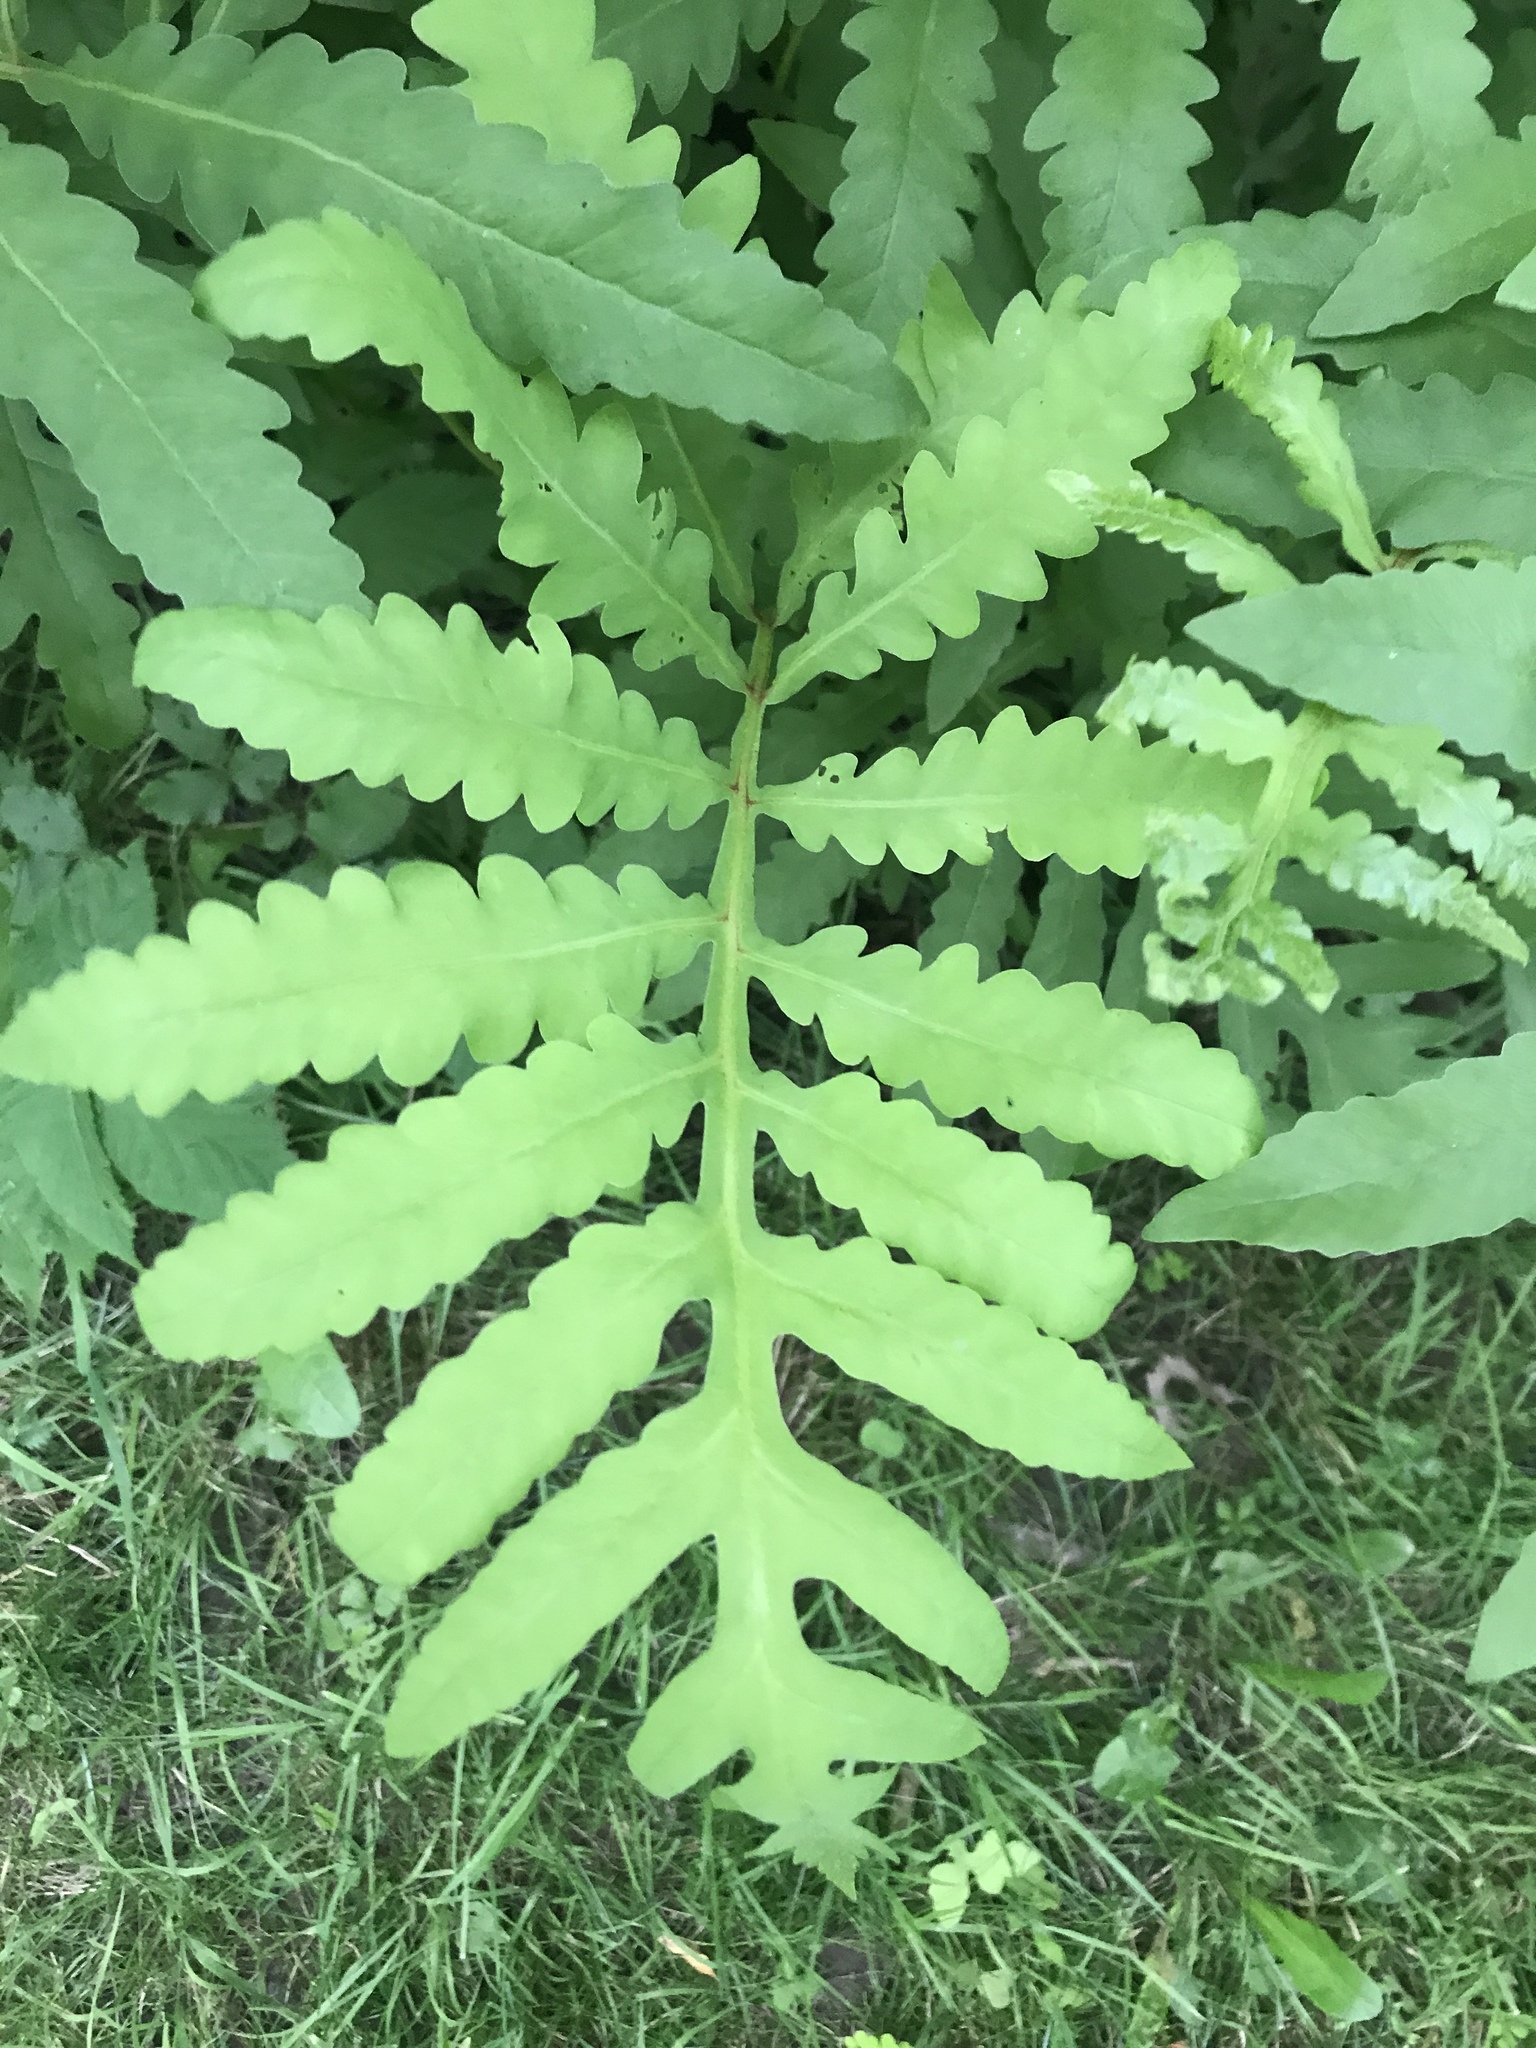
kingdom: Plantae
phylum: Tracheophyta
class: Polypodiopsida
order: Polypodiales
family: Onocleaceae
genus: Onoclea
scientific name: Onoclea sensibilis
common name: Sensitive fern
